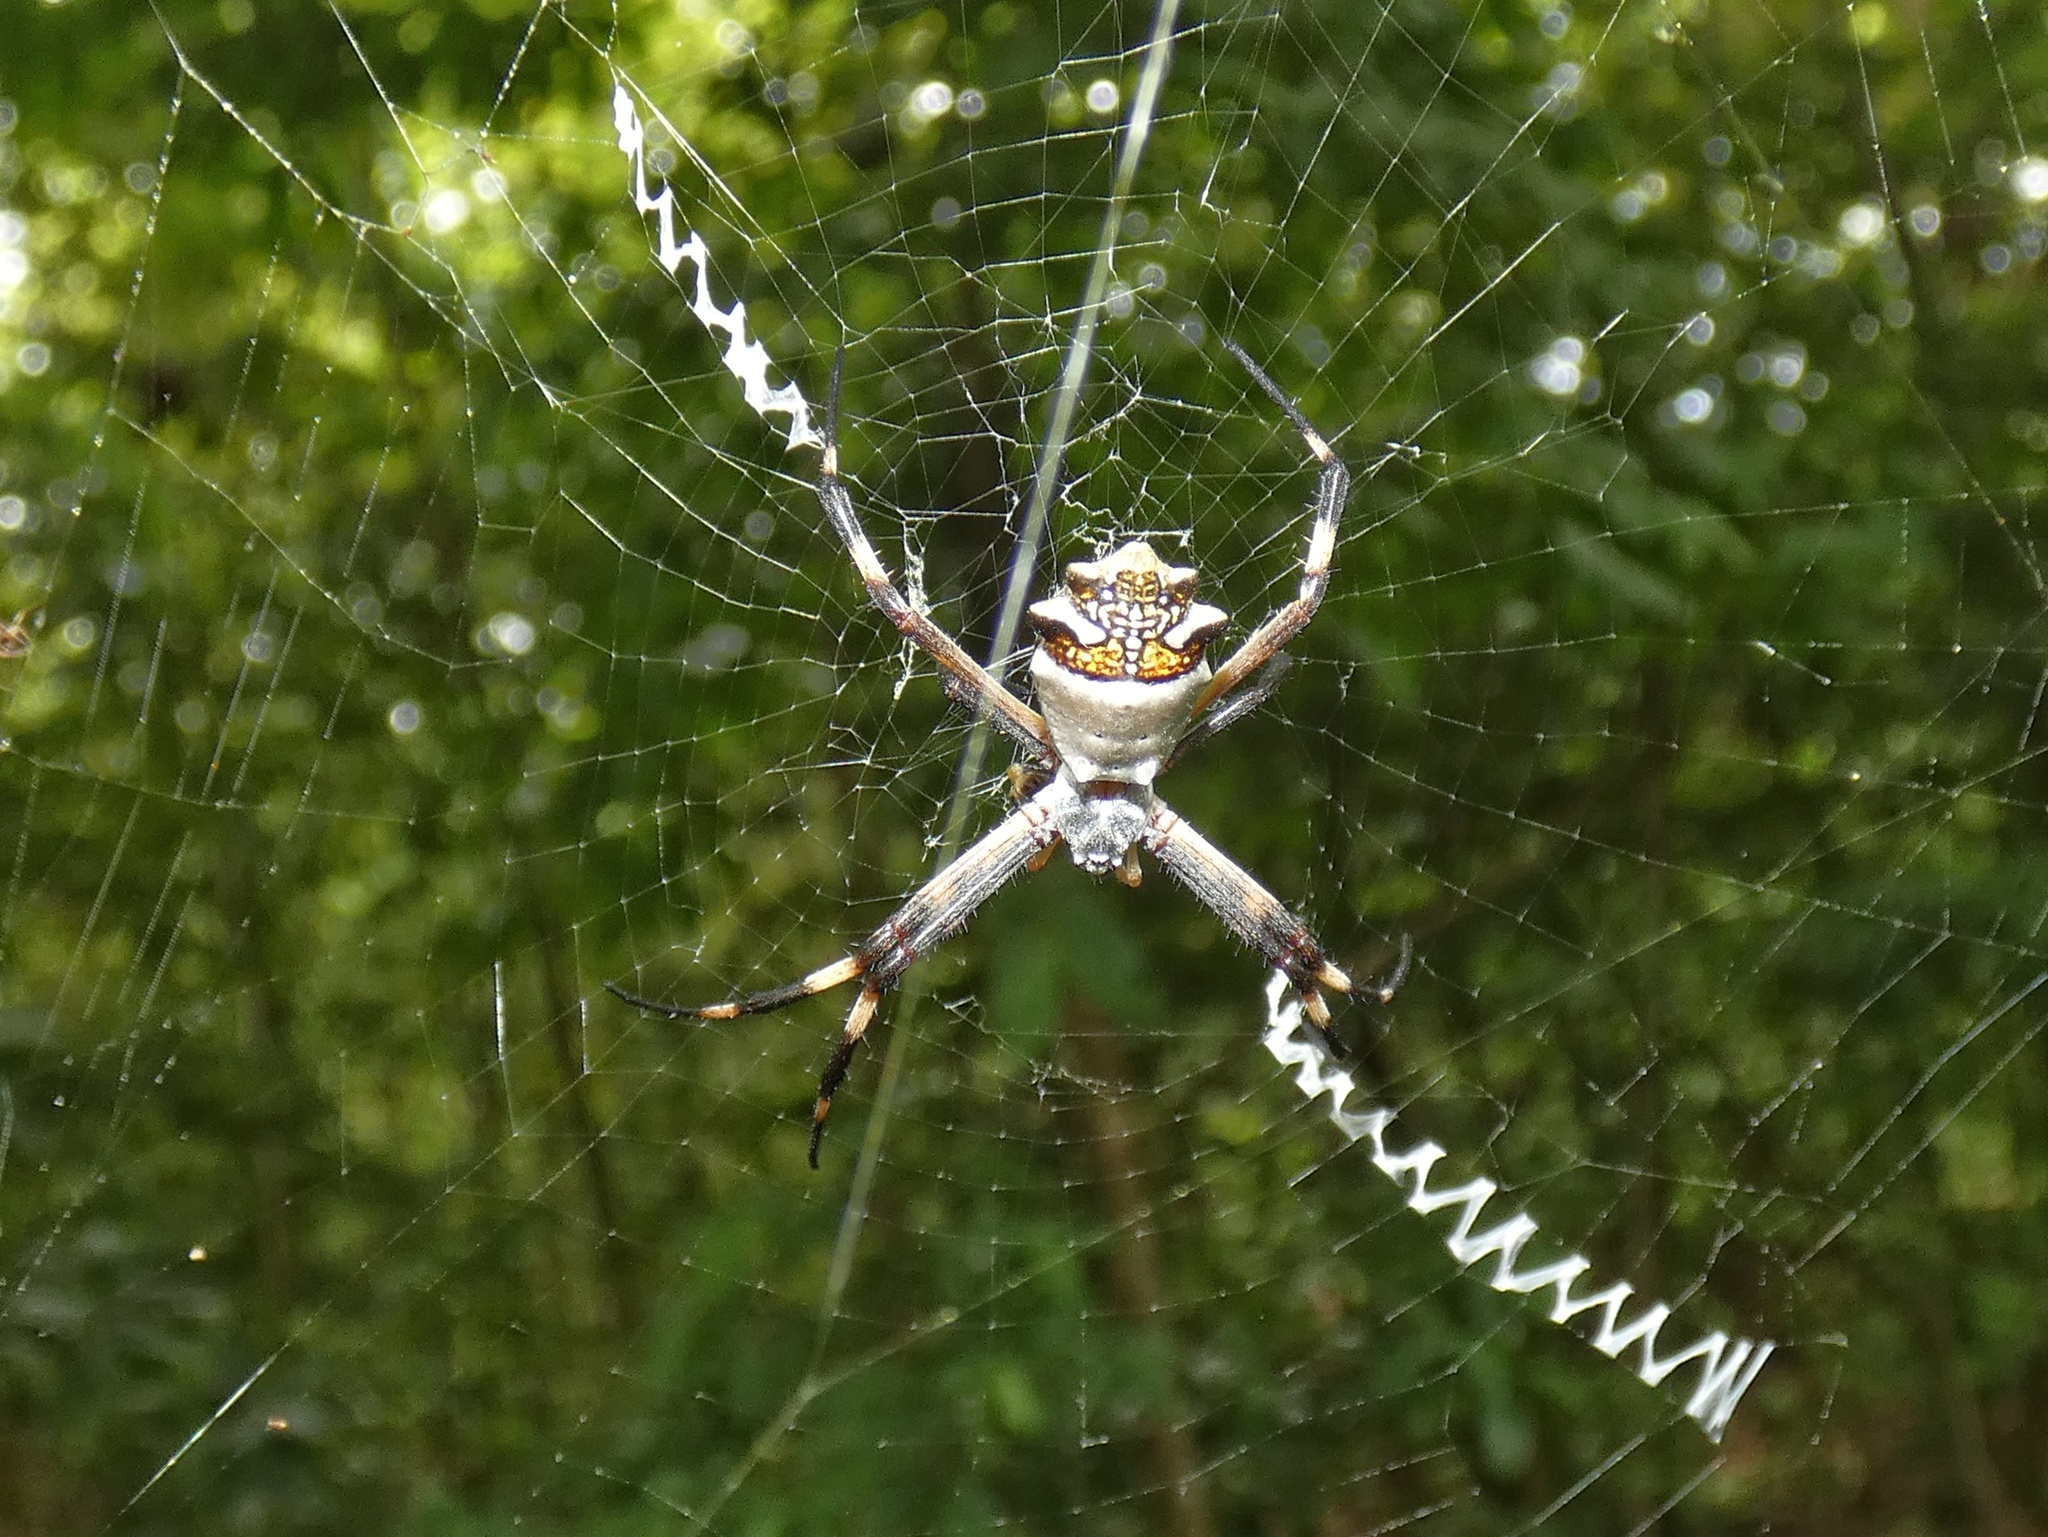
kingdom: Animalia
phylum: Arthropoda
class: Arachnida
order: Araneae
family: Araneidae
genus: Argiope
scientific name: Argiope argentata
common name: Orb weavers
